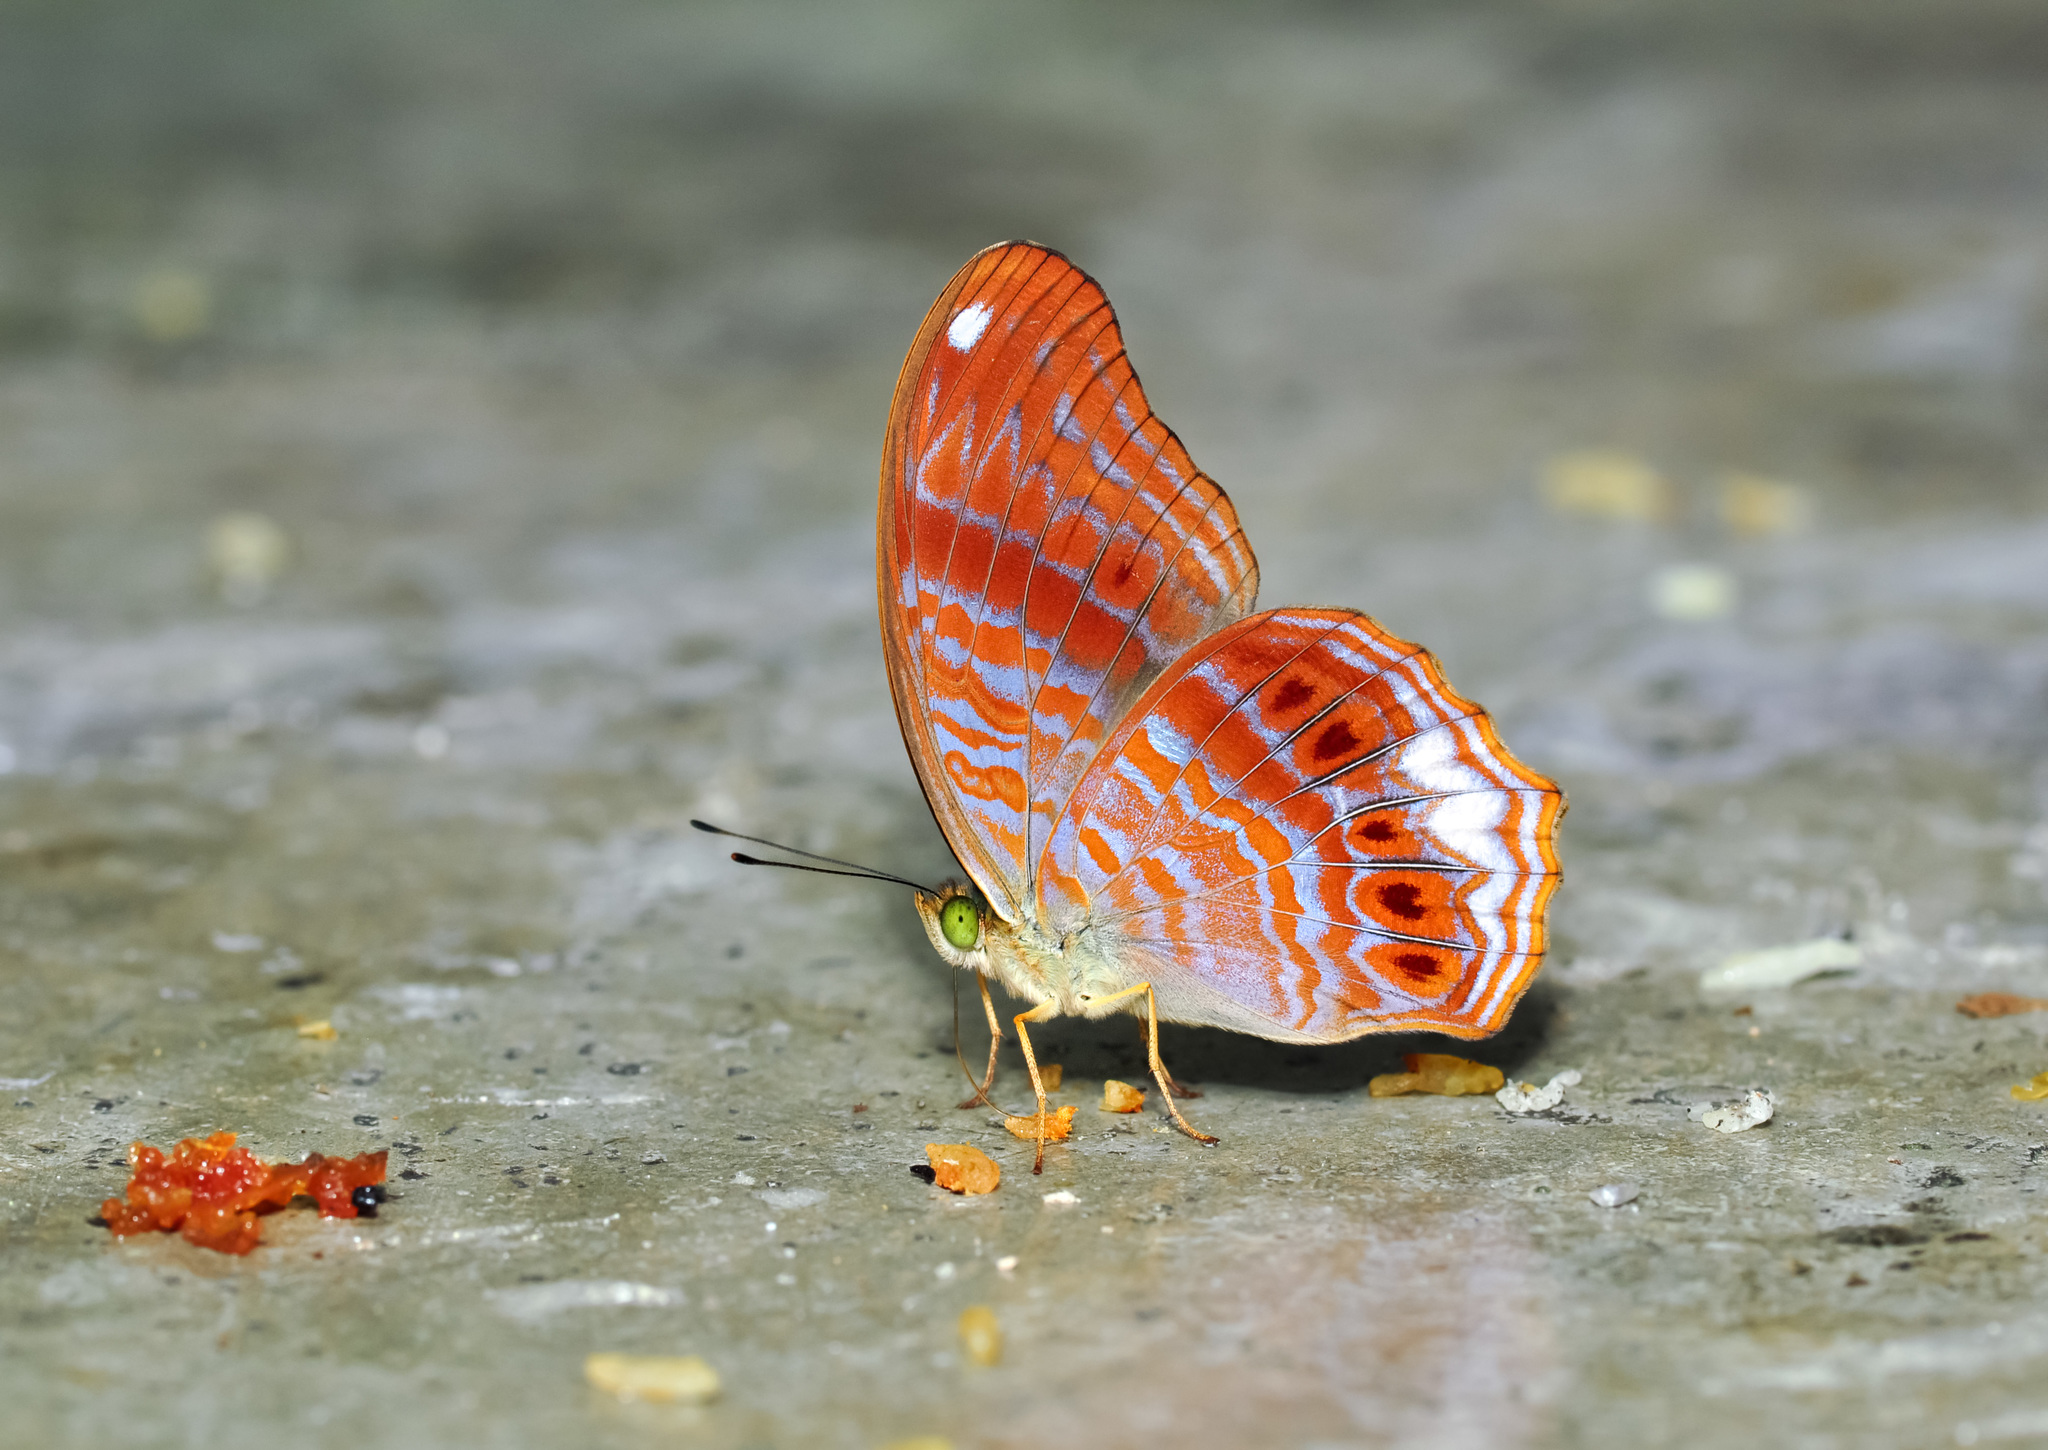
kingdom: Animalia
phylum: Arthropoda
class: Insecta
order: Lepidoptera
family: Nymphalidae
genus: Terinos
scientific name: Terinos terpander
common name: Royal assyrian
